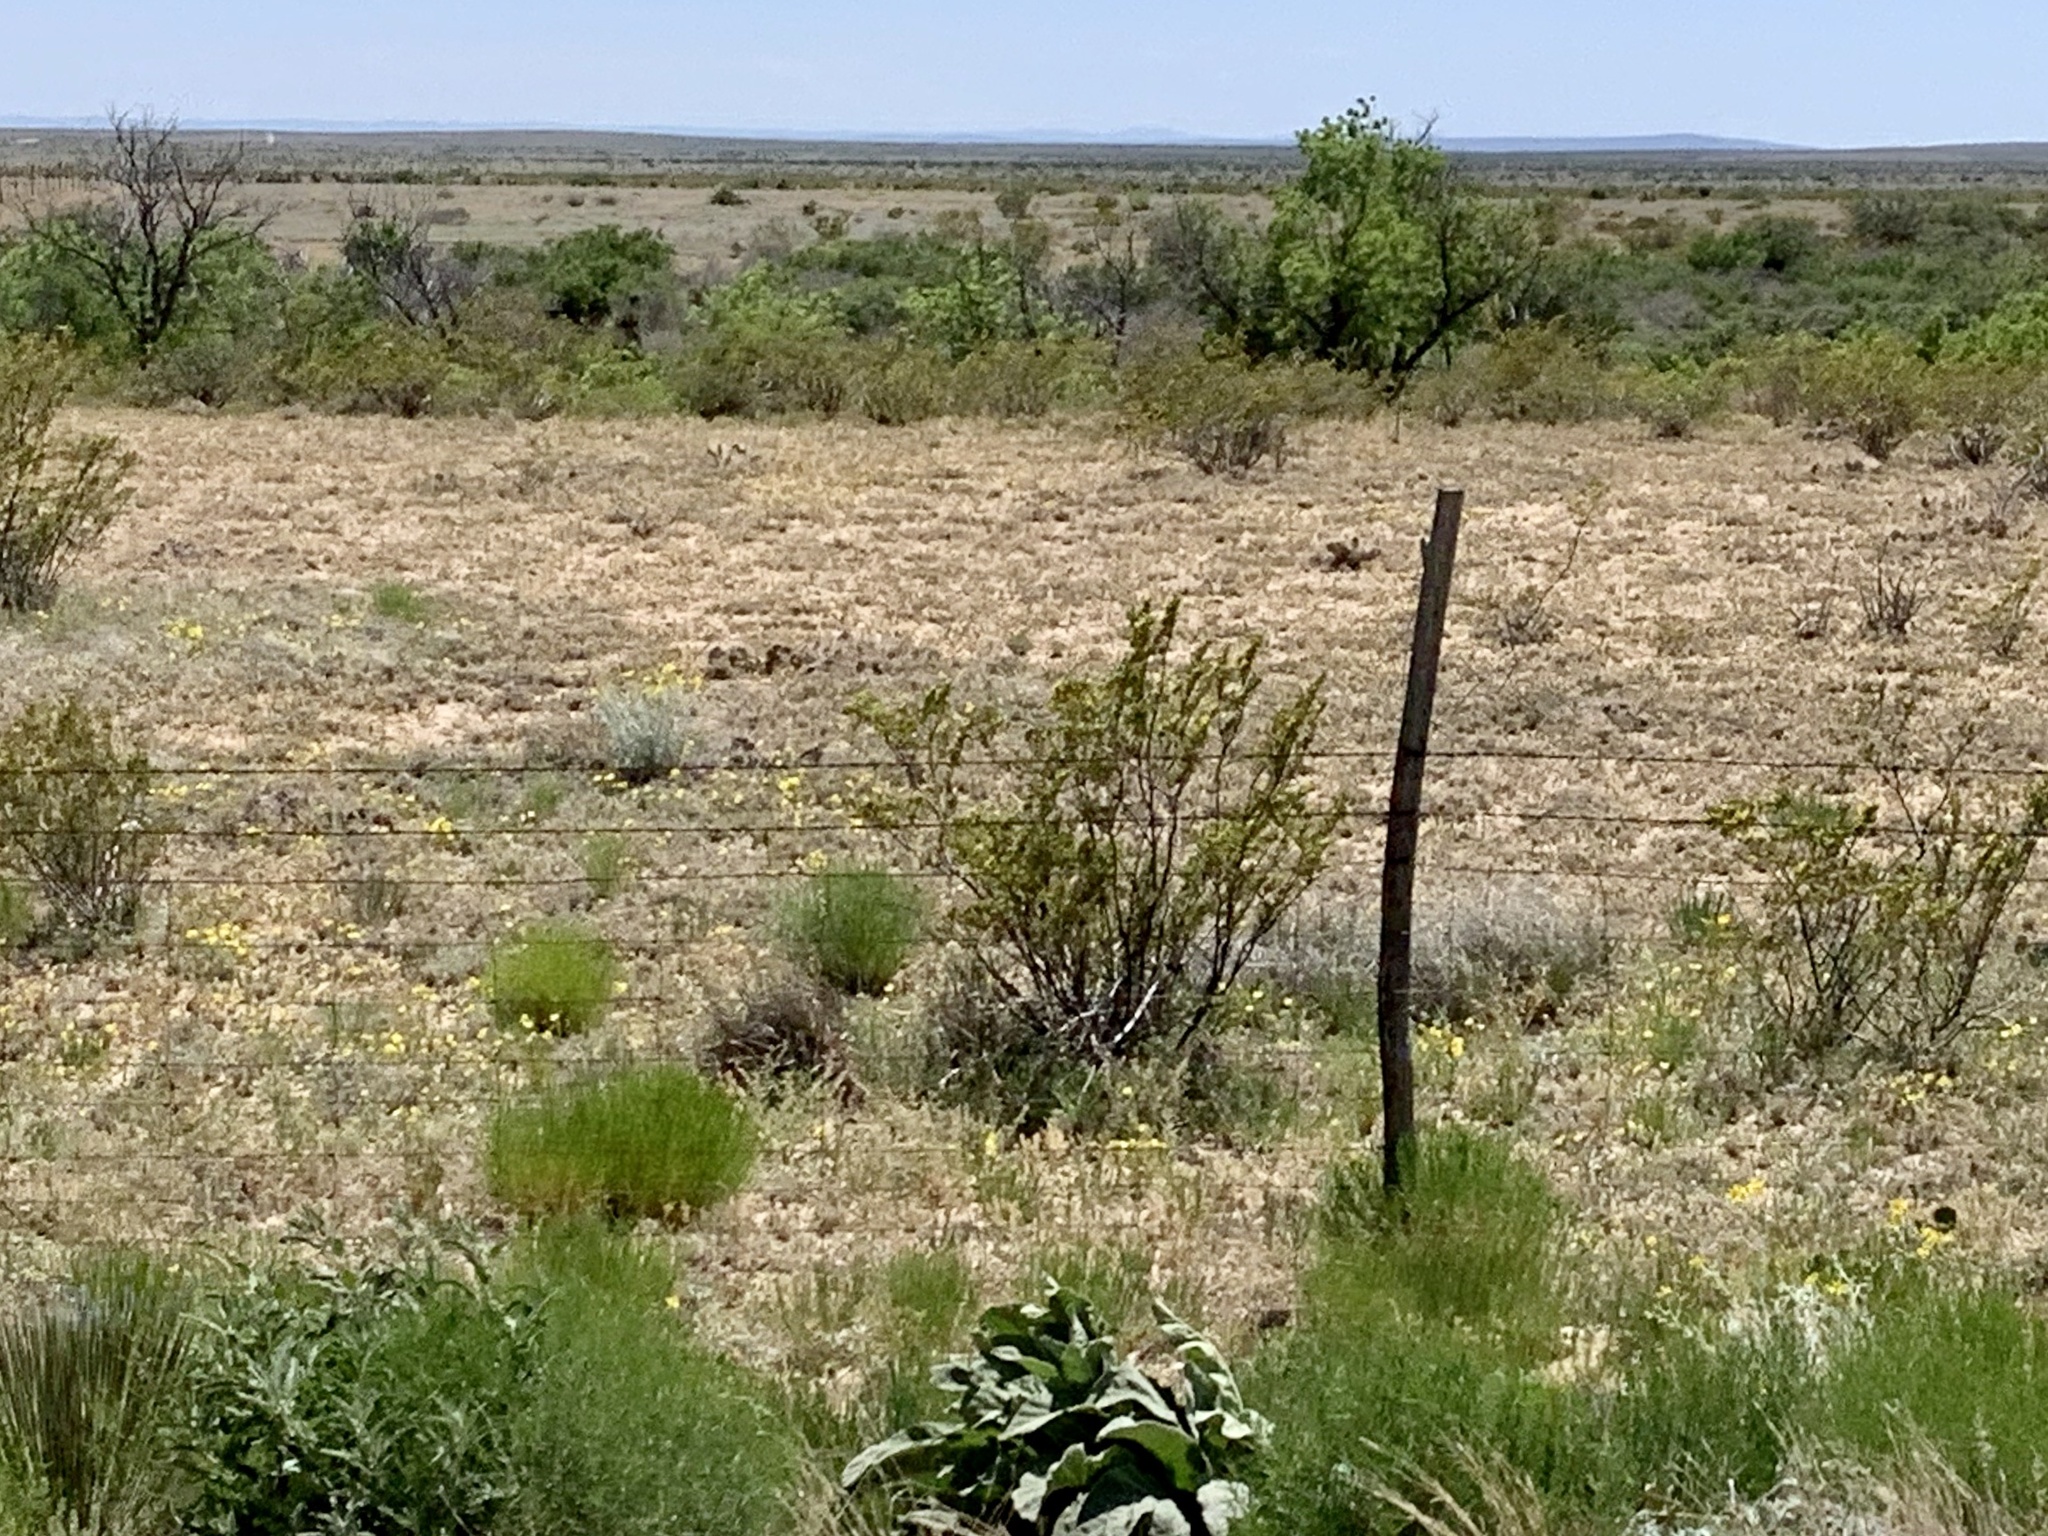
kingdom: Plantae
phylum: Tracheophyta
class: Magnoliopsida
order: Zygophyllales
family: Zygophyllaceae
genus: Larrea
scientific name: Larrea tridentata
